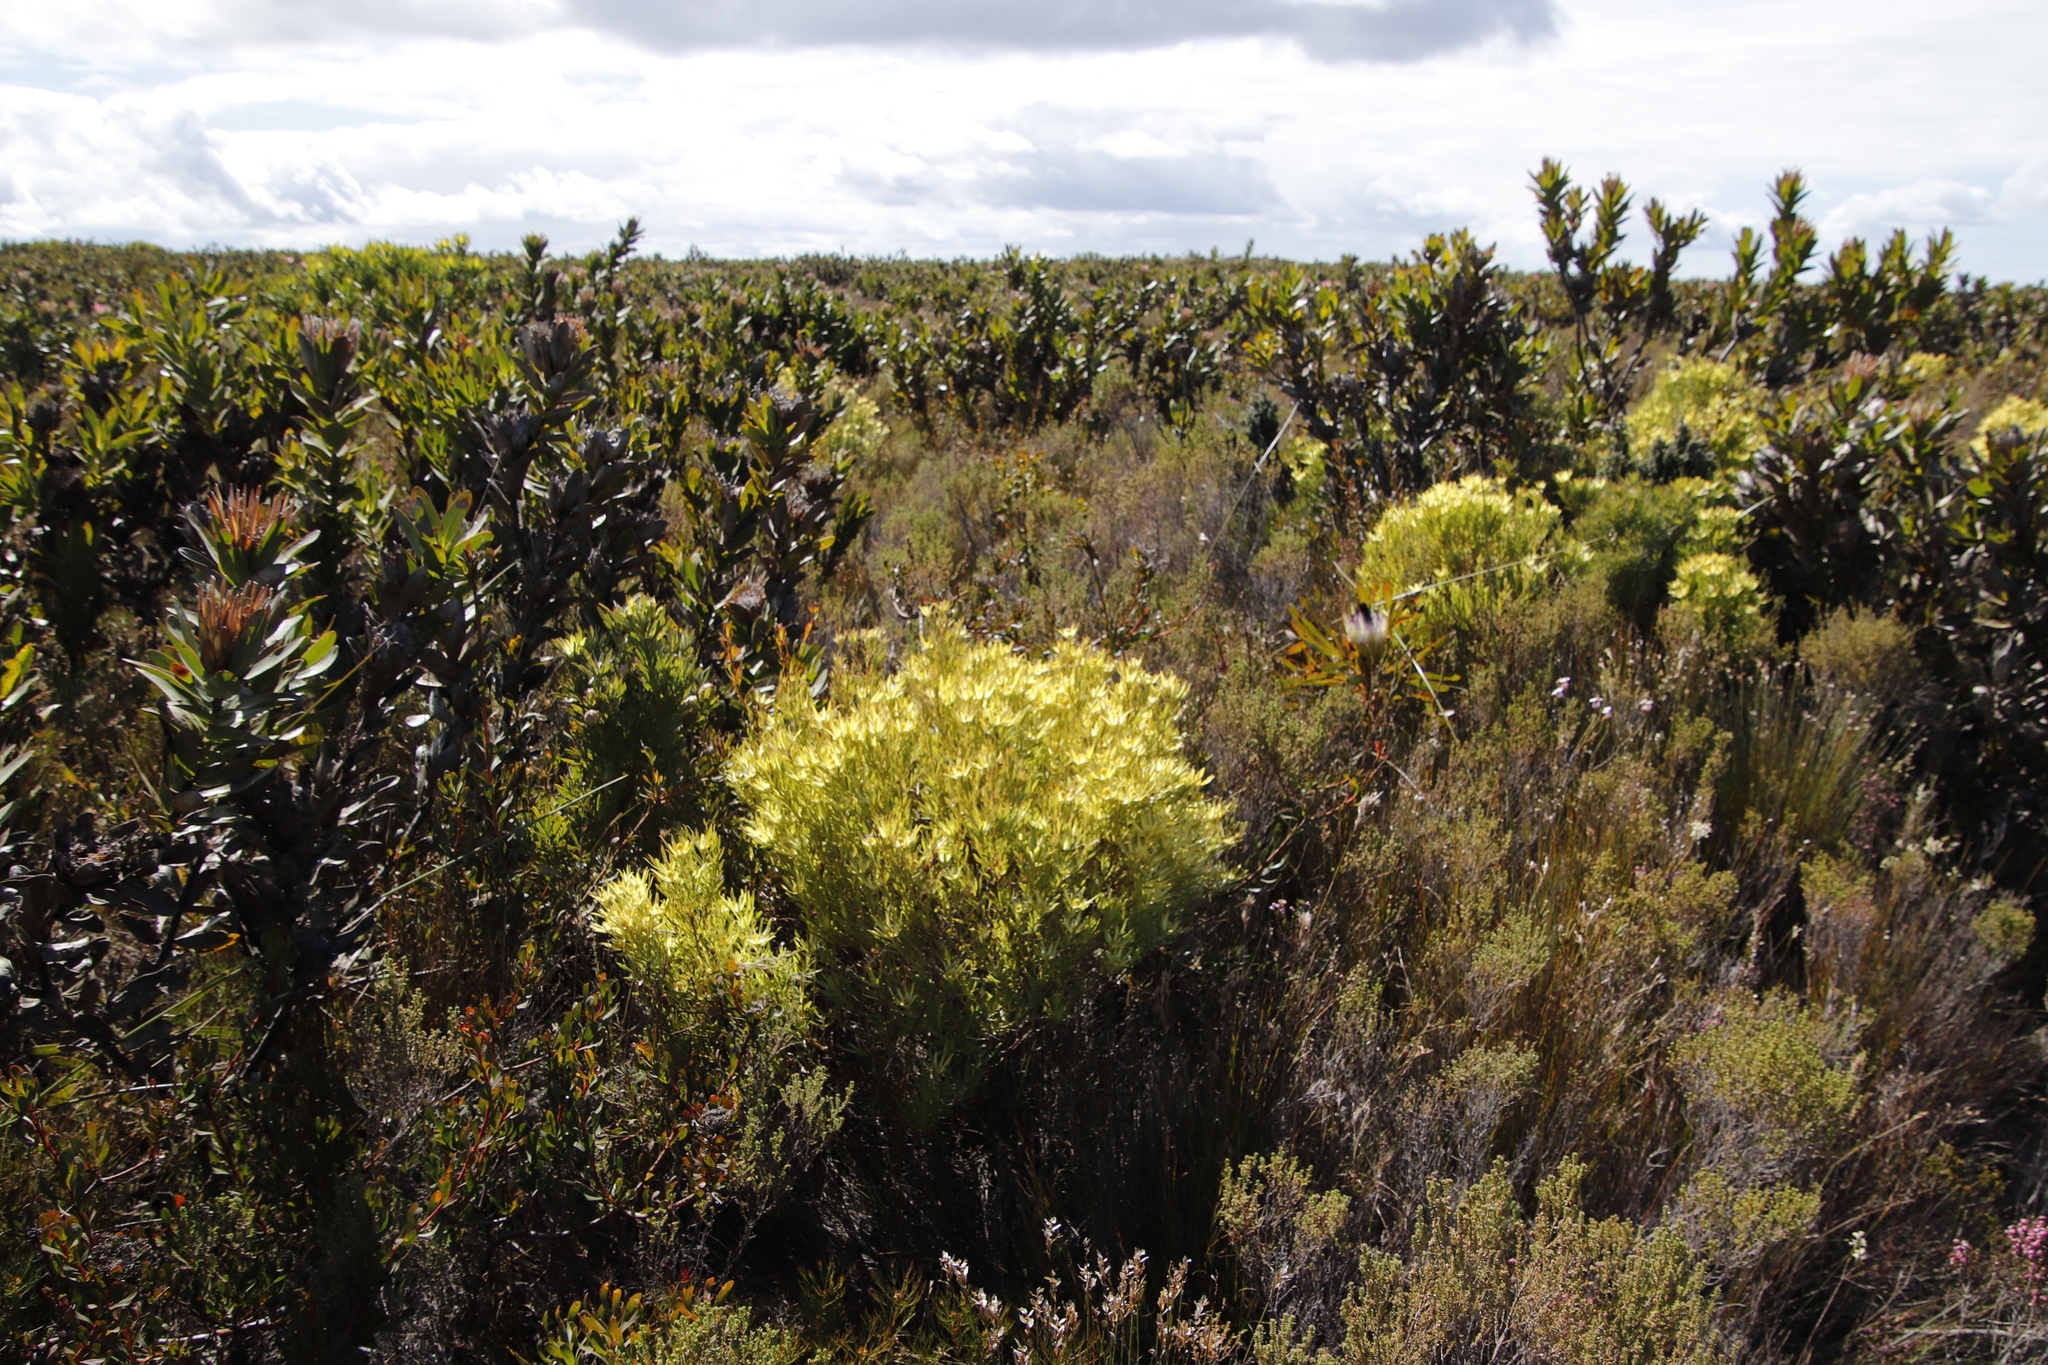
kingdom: Plantae
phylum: Tracheophyta
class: Magnoliopsida
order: Proteales
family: Proteaceae
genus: Leucadendron
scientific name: Leucadendron xanthoconus
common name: Sickle-leaf conebush
